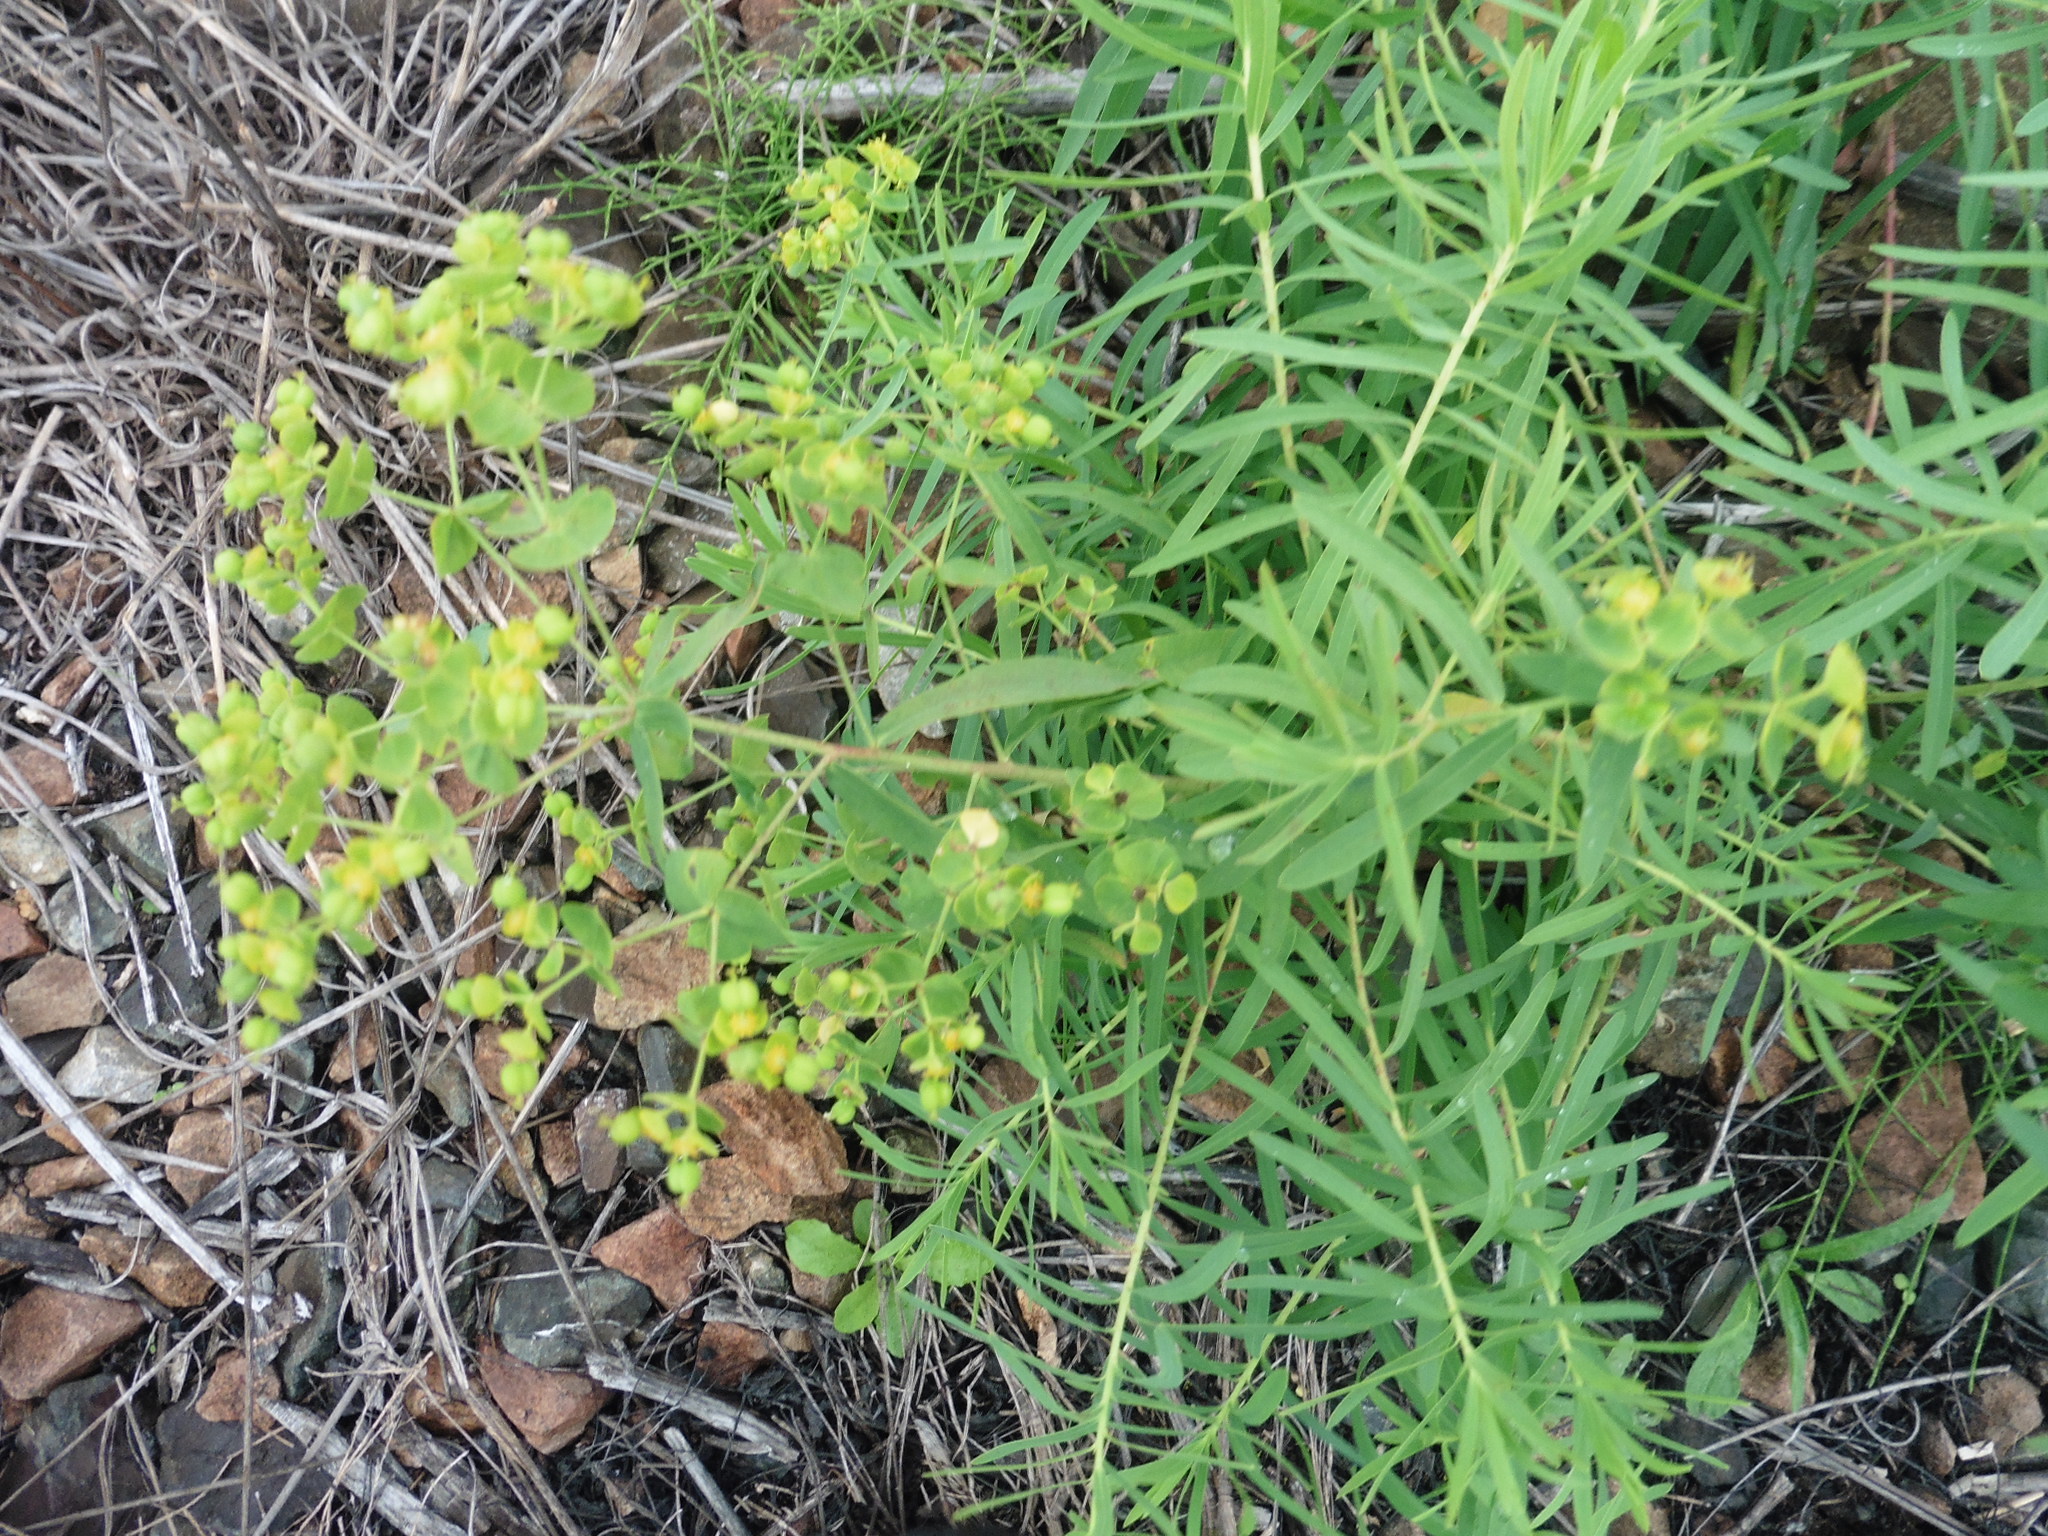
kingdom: Plantae
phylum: Tracheophyta
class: Magnoliopsida
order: Malpighiales
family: Euphorbiaceae
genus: Euphorbia
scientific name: Euphorbia virgata
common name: Leafy spurge
